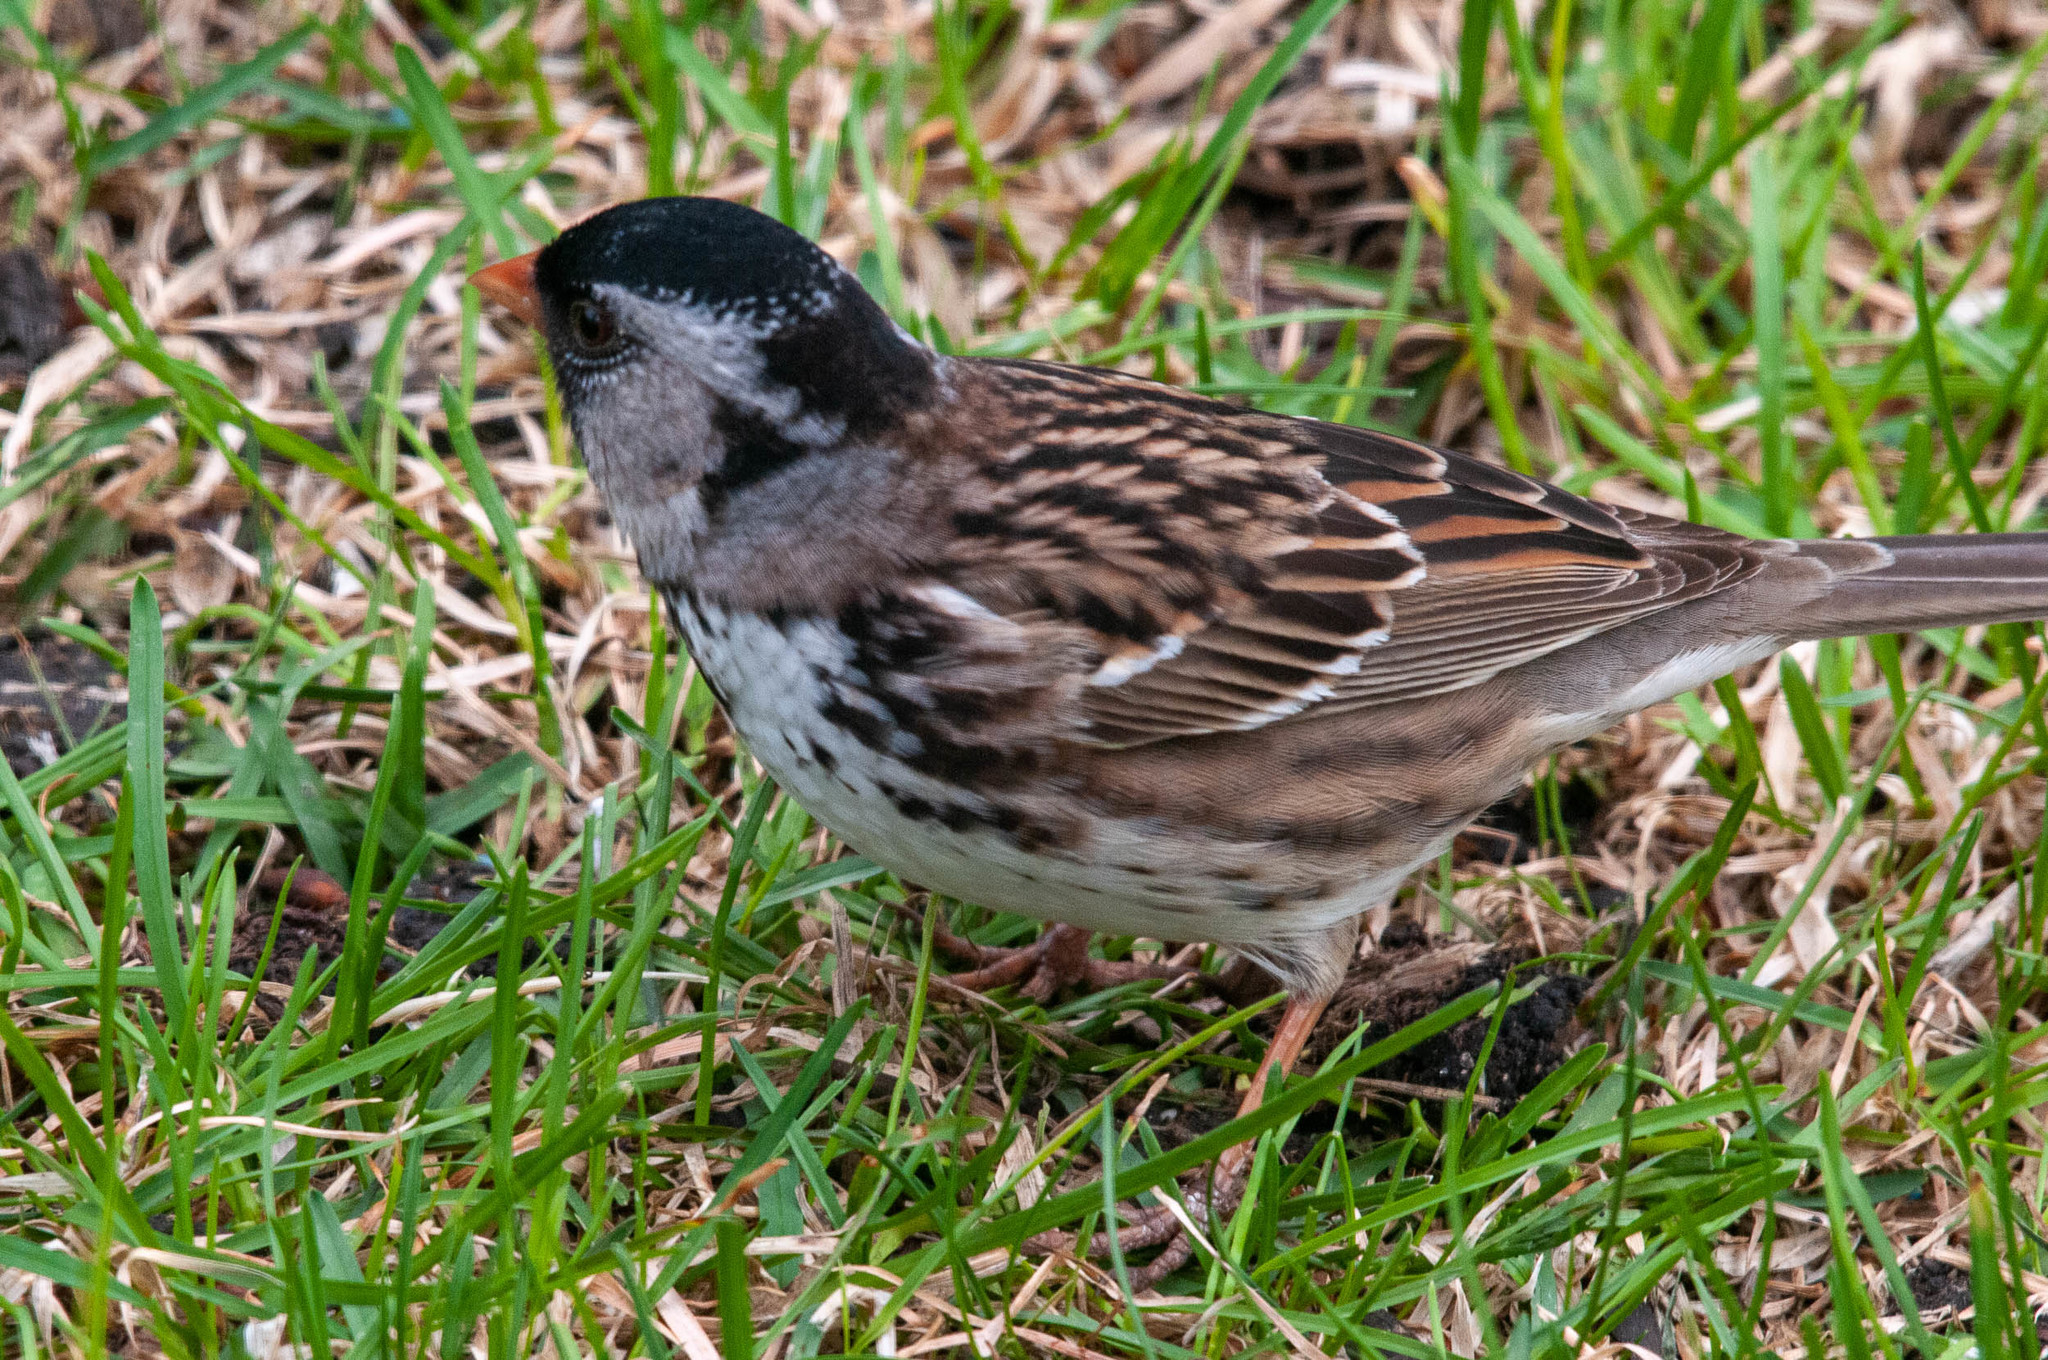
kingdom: Animalia
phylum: Chordata
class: Aves
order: Passeriformes
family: Passerellidae
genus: Zonotrichia
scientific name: Zonotrichia querula
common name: Harris's sparrow
